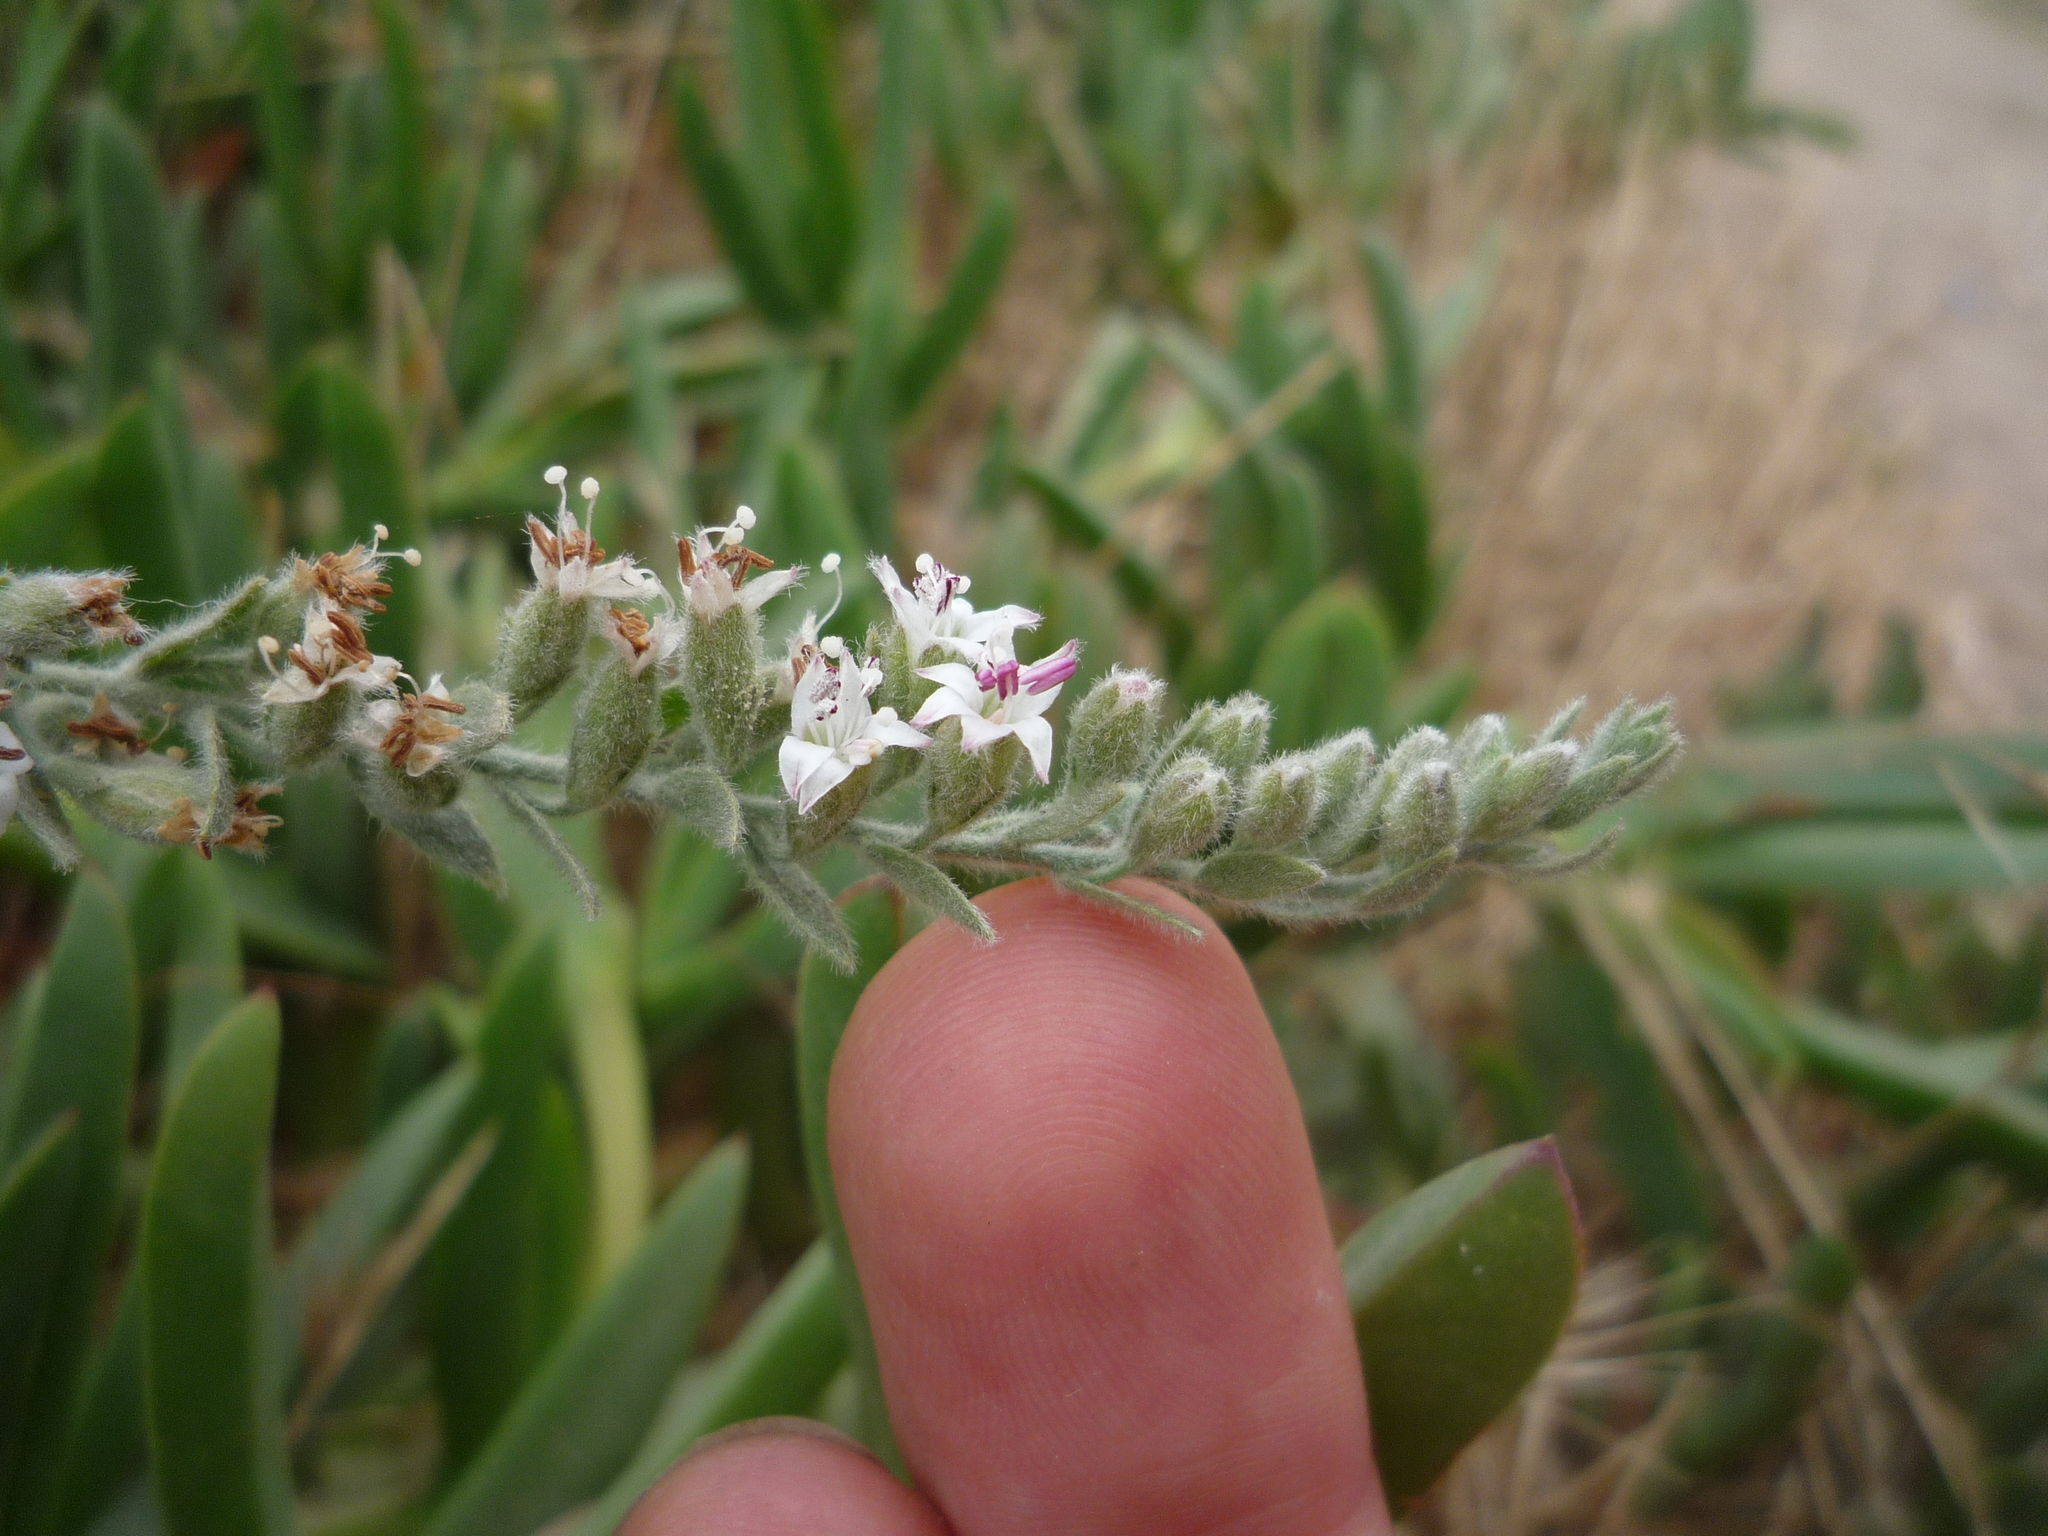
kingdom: Plantae
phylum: Tracheophyta
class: Magnoliopsida
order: Solanales
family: Convolvulaceae
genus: Cressa
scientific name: Cressa truxillensis
